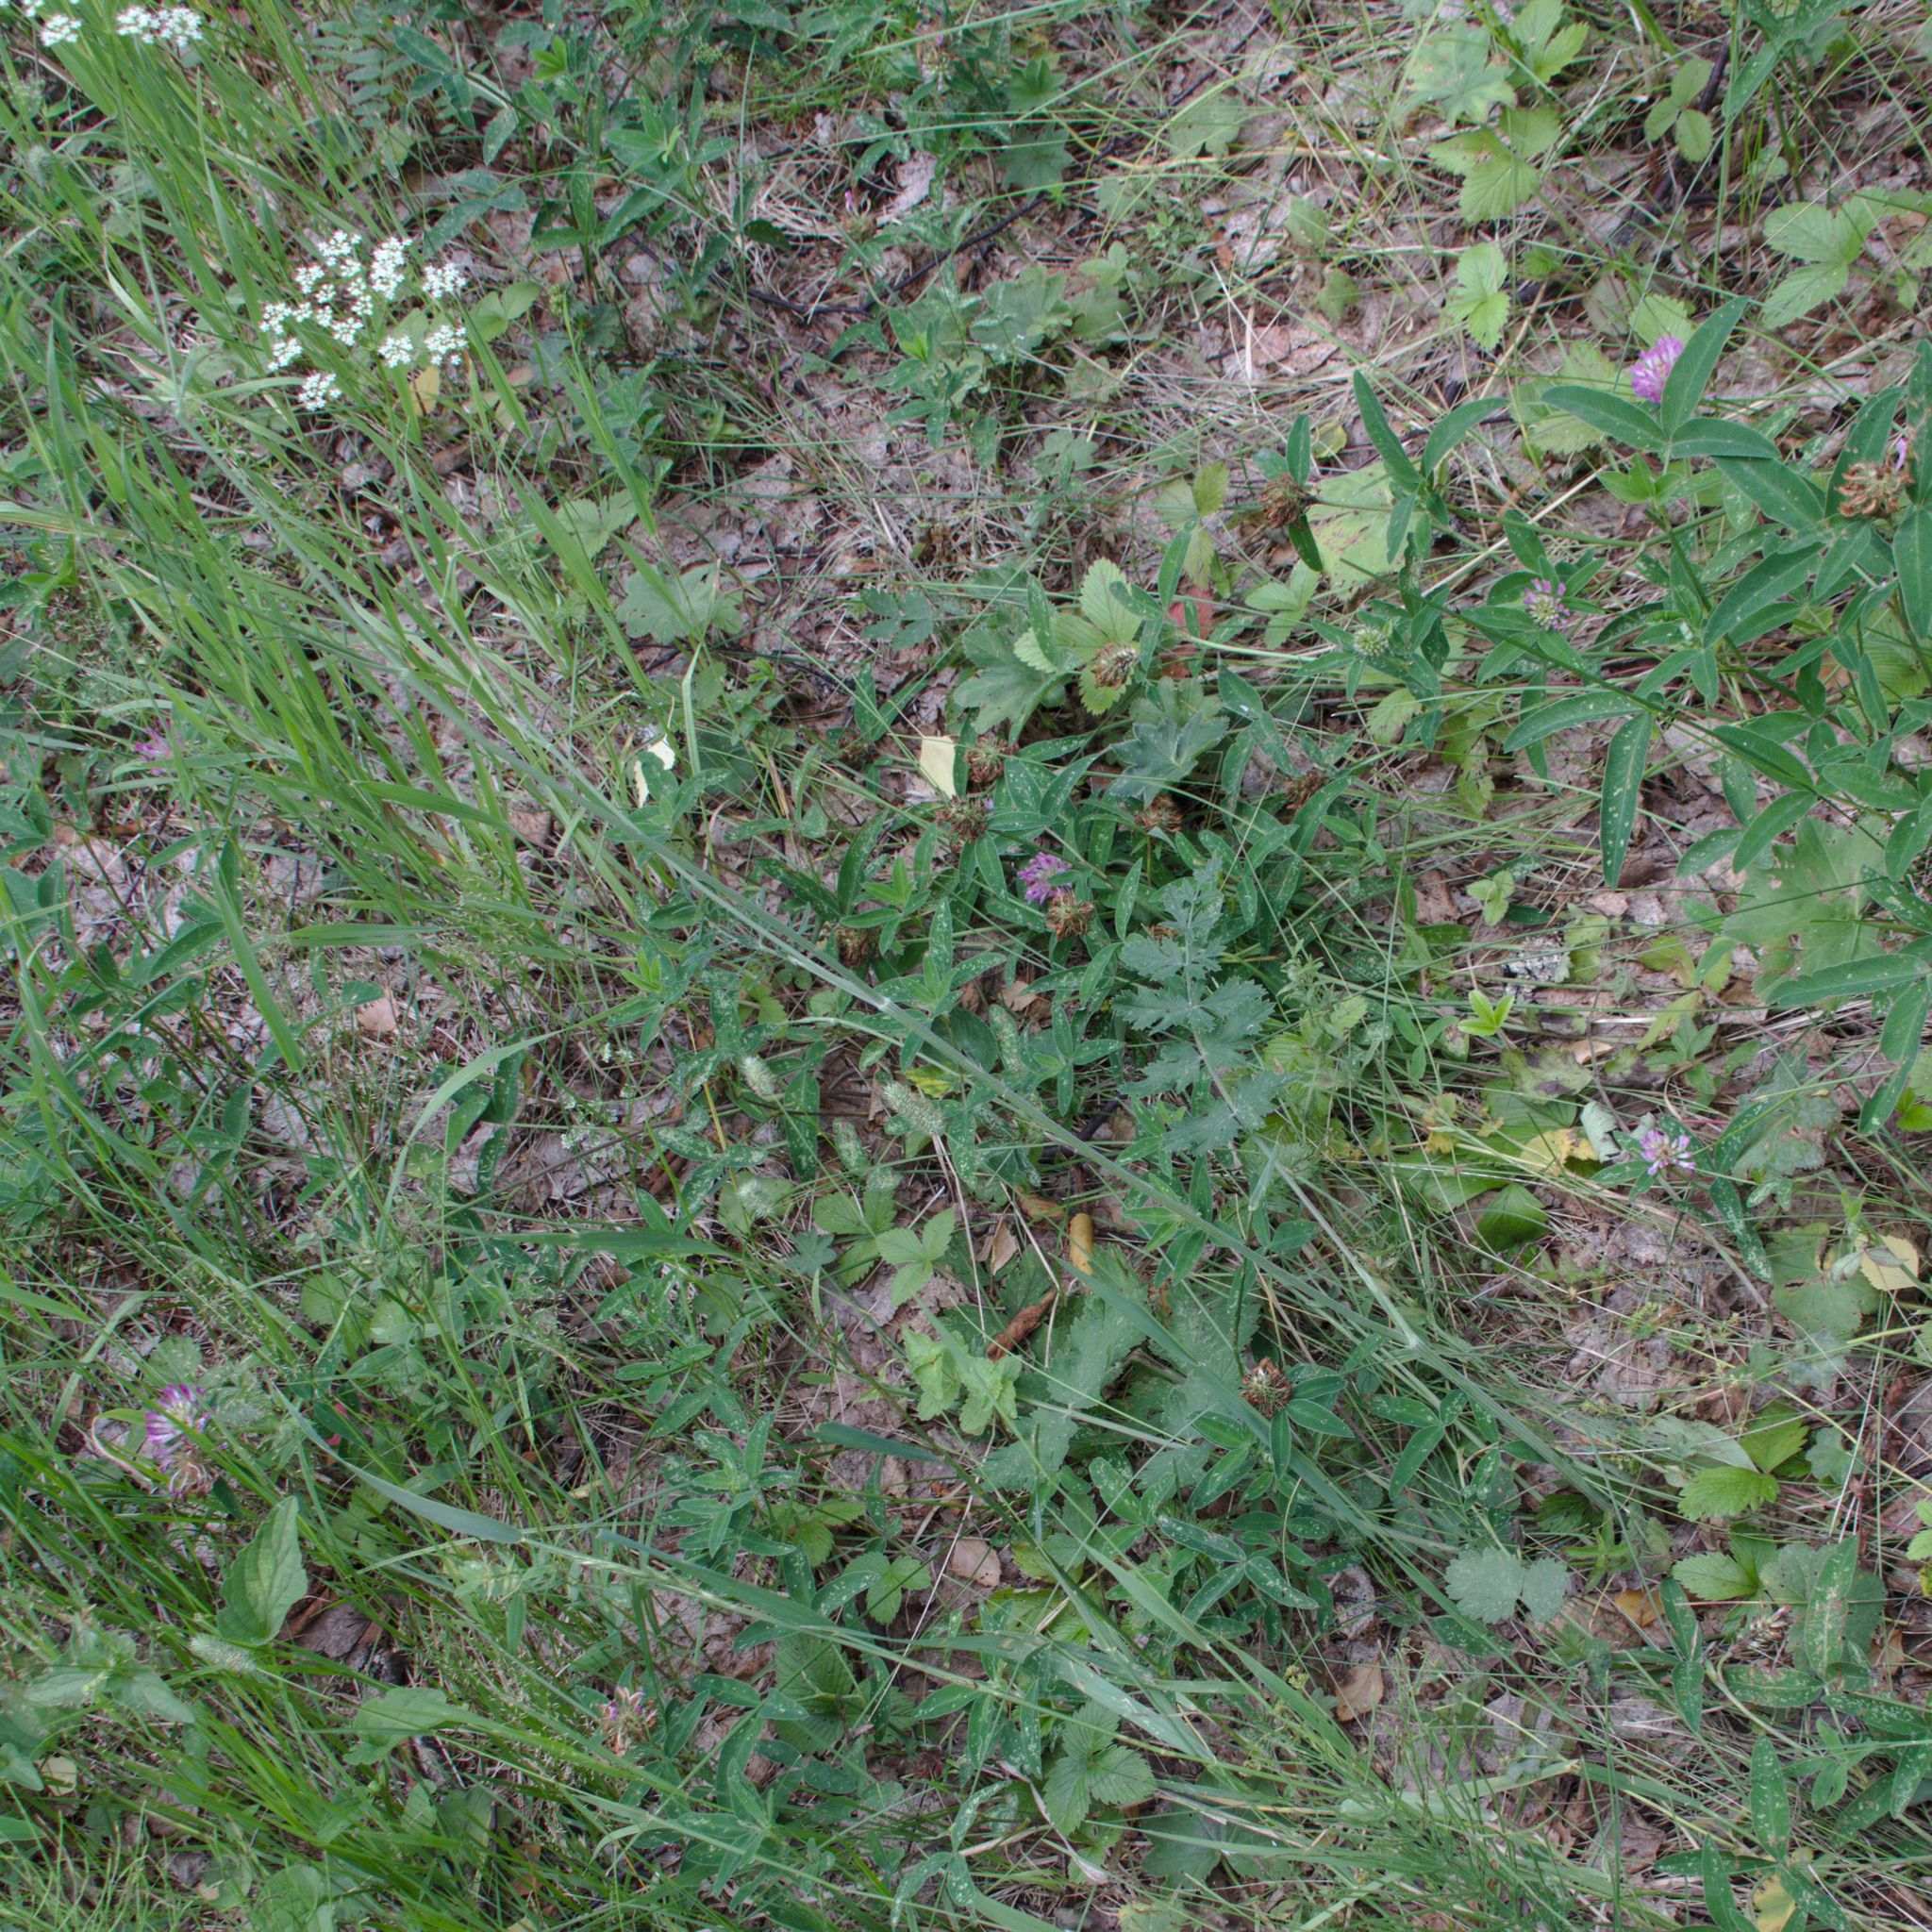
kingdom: Plantae
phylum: Tracheophyta
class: Magnoliopsida
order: Apiales
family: Apiaceae
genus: Pimpinella
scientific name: Pimpinella saxifraga
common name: Burnet-saxifrage
